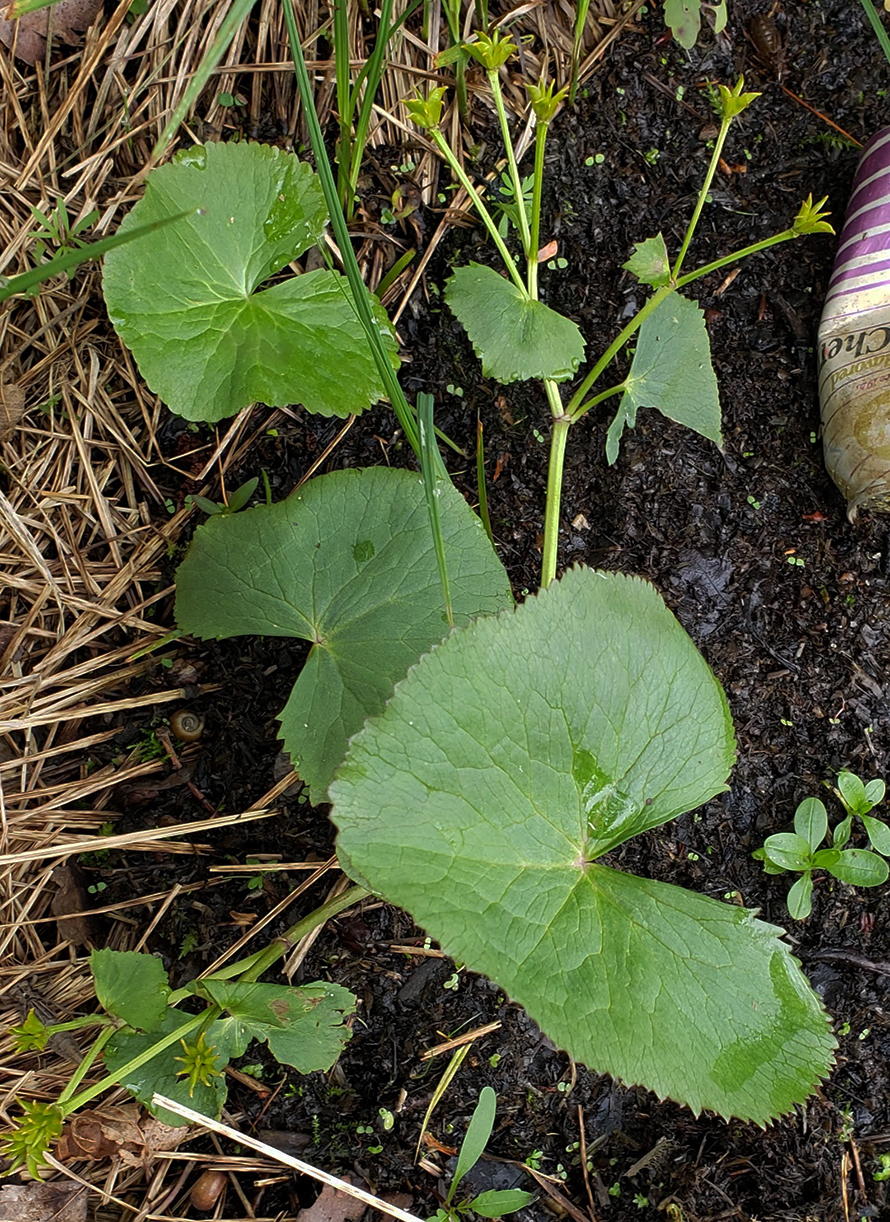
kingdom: Plantae
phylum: Tracheophyta
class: Magnoliopsida
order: Ranunculales
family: Ranunculaceae
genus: Caltha
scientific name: Caltha palustris
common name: Marsh marigold
